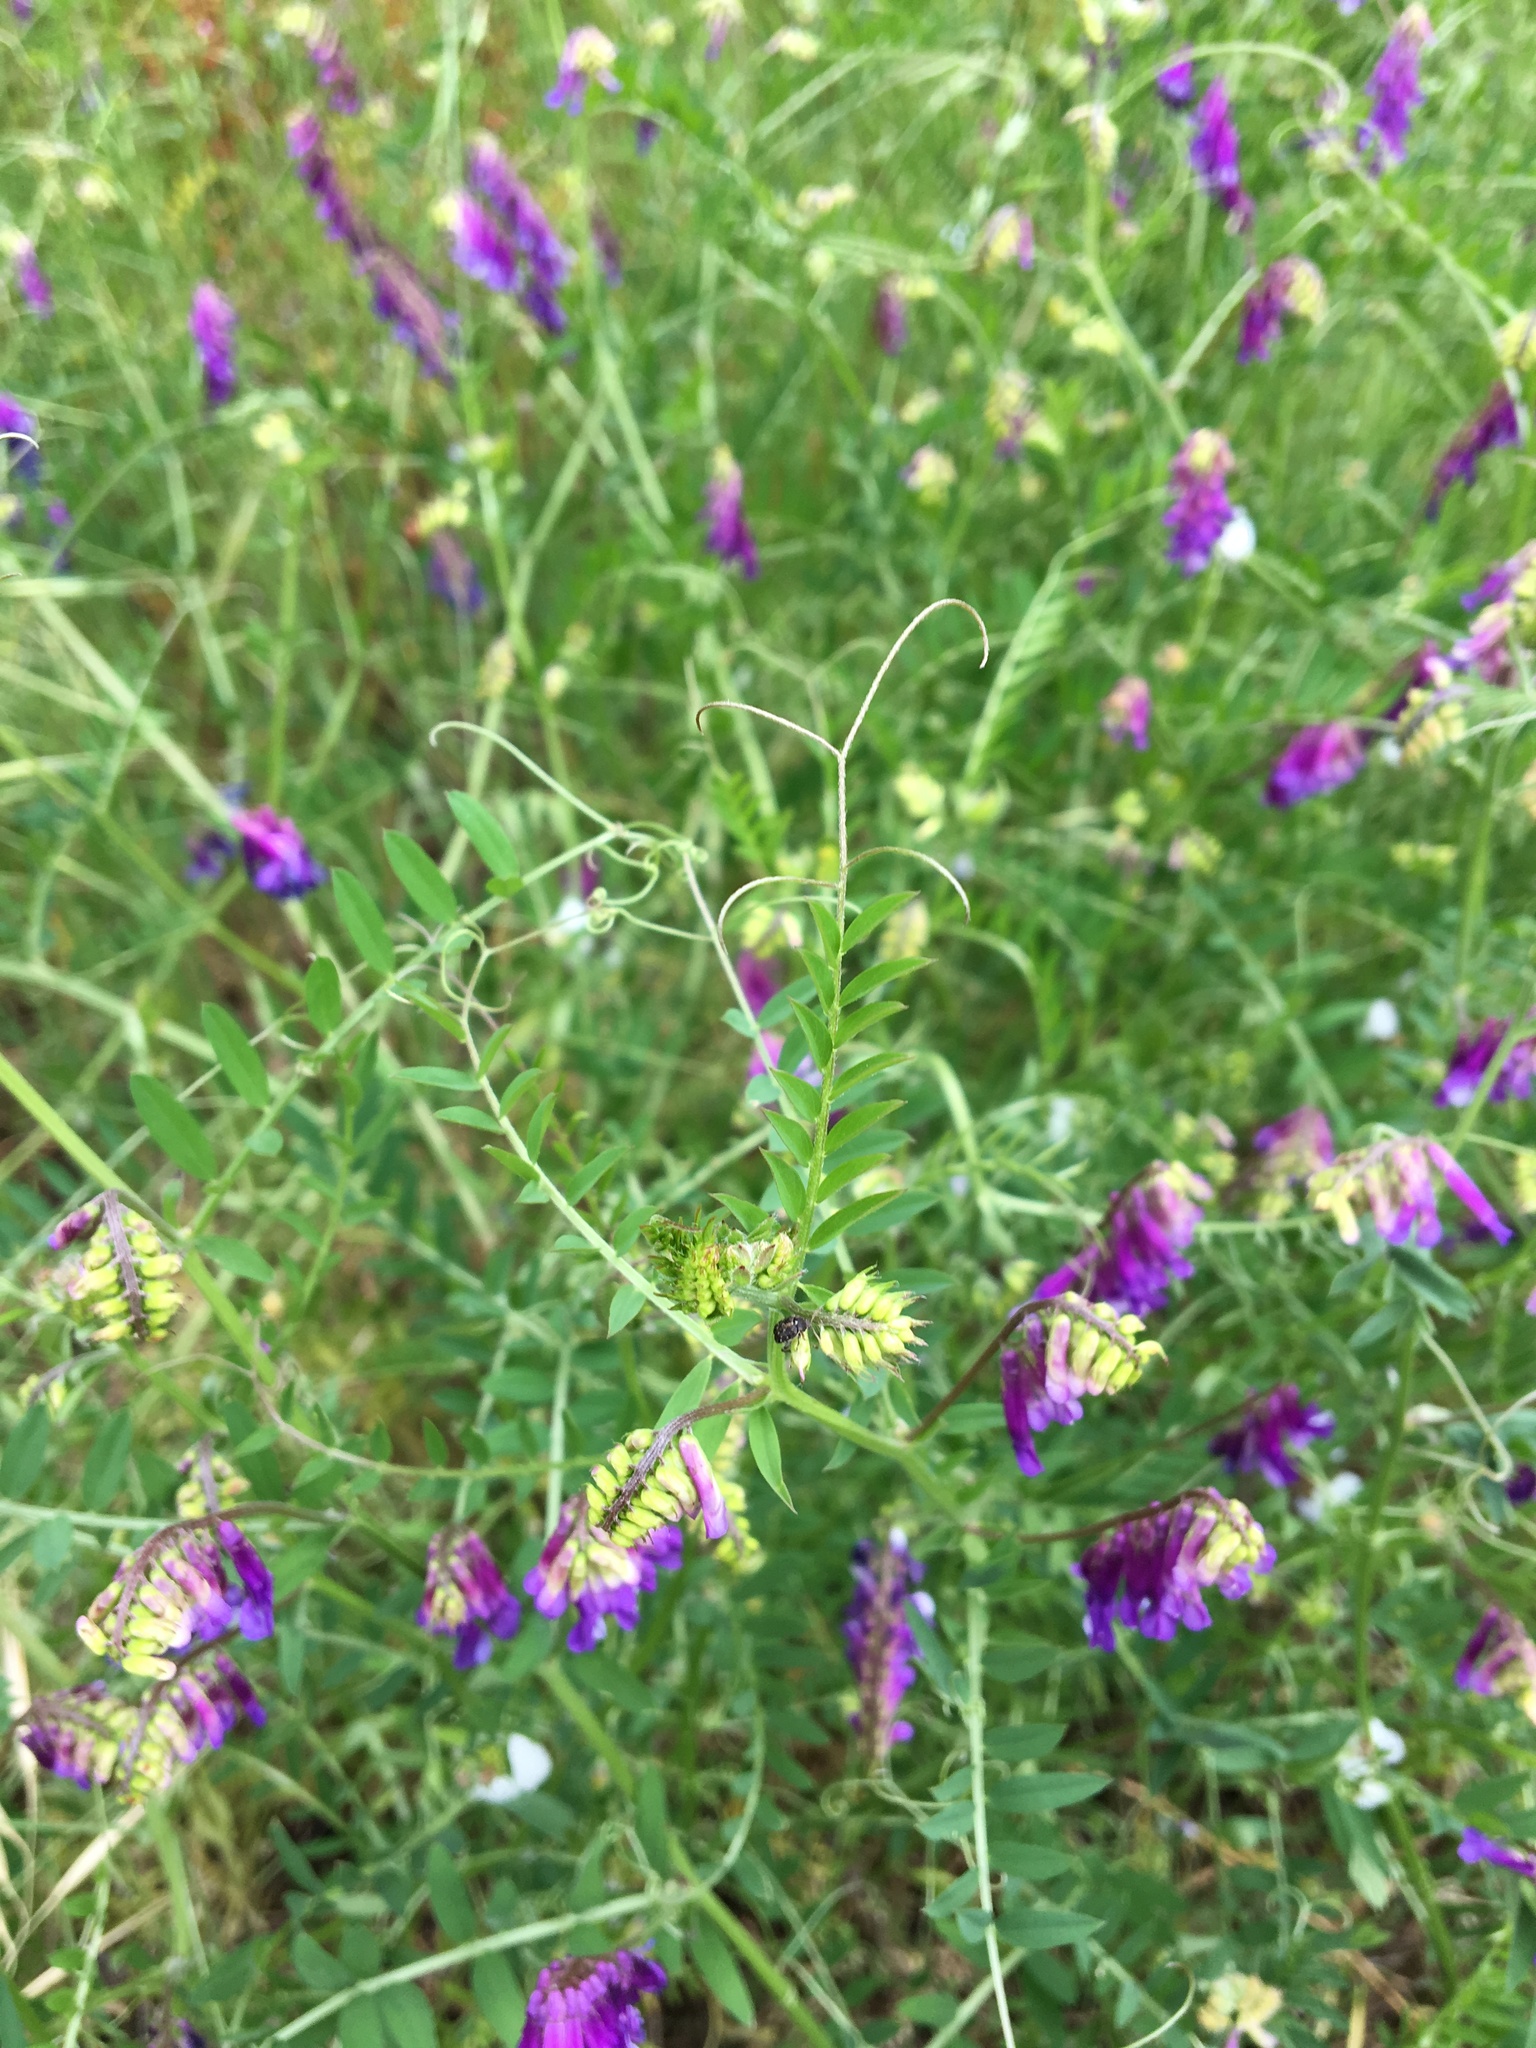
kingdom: Plantae
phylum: Tracheophyta
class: Magnoliopsida
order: Fabales
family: Fabaceae
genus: Vicia
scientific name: Vicia villosa
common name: Fodder vetch
